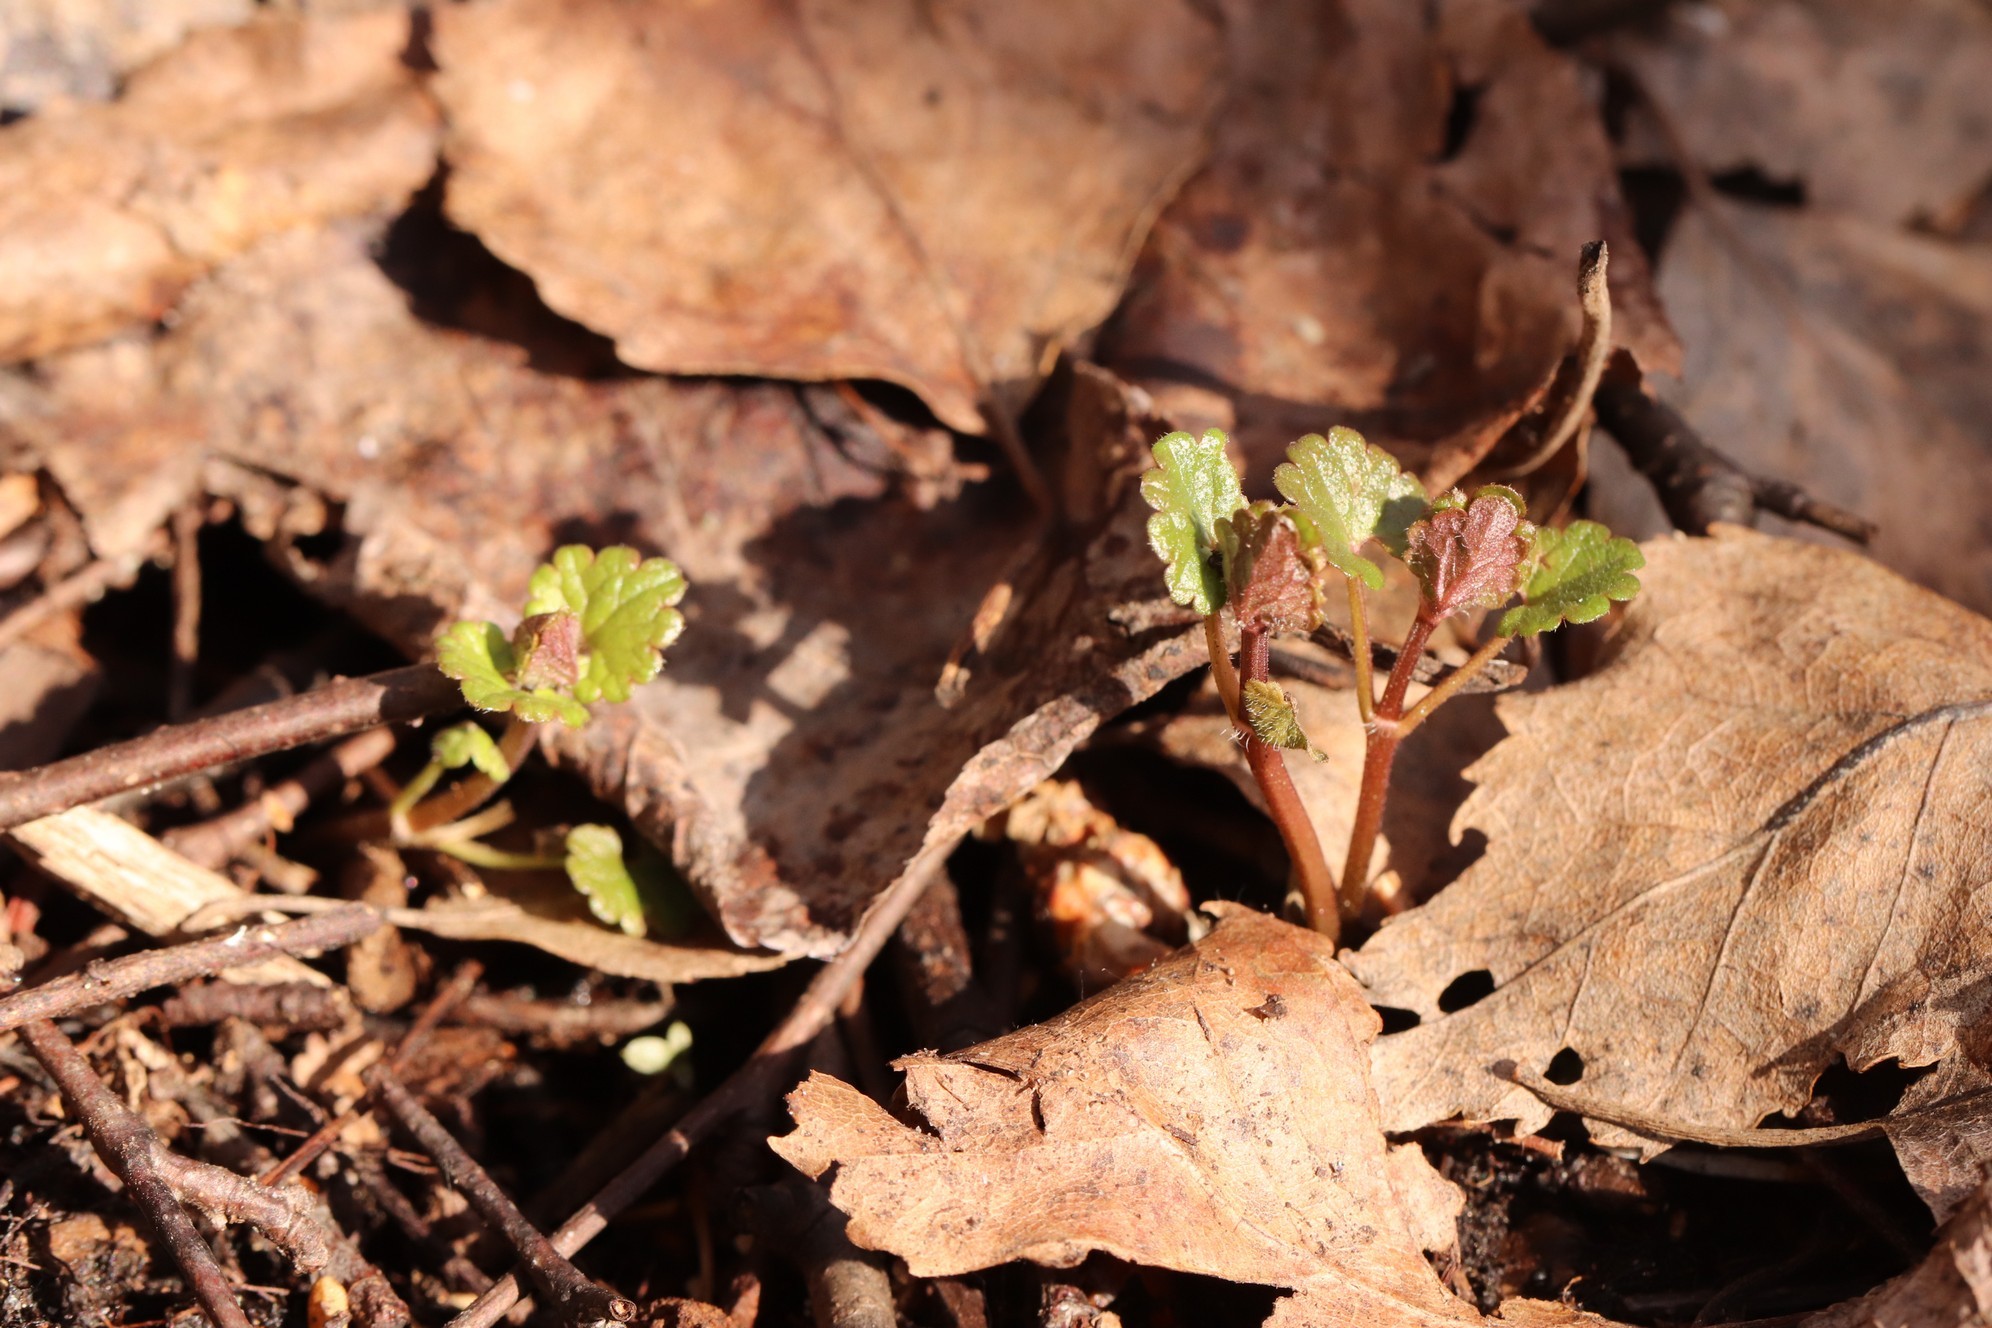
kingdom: Plantae
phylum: Tracheophyta
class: Magnoliopsida
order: Lamiales
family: Lamiaceae
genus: Glechoma
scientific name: Glechoma hederacea
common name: Ground ivy
